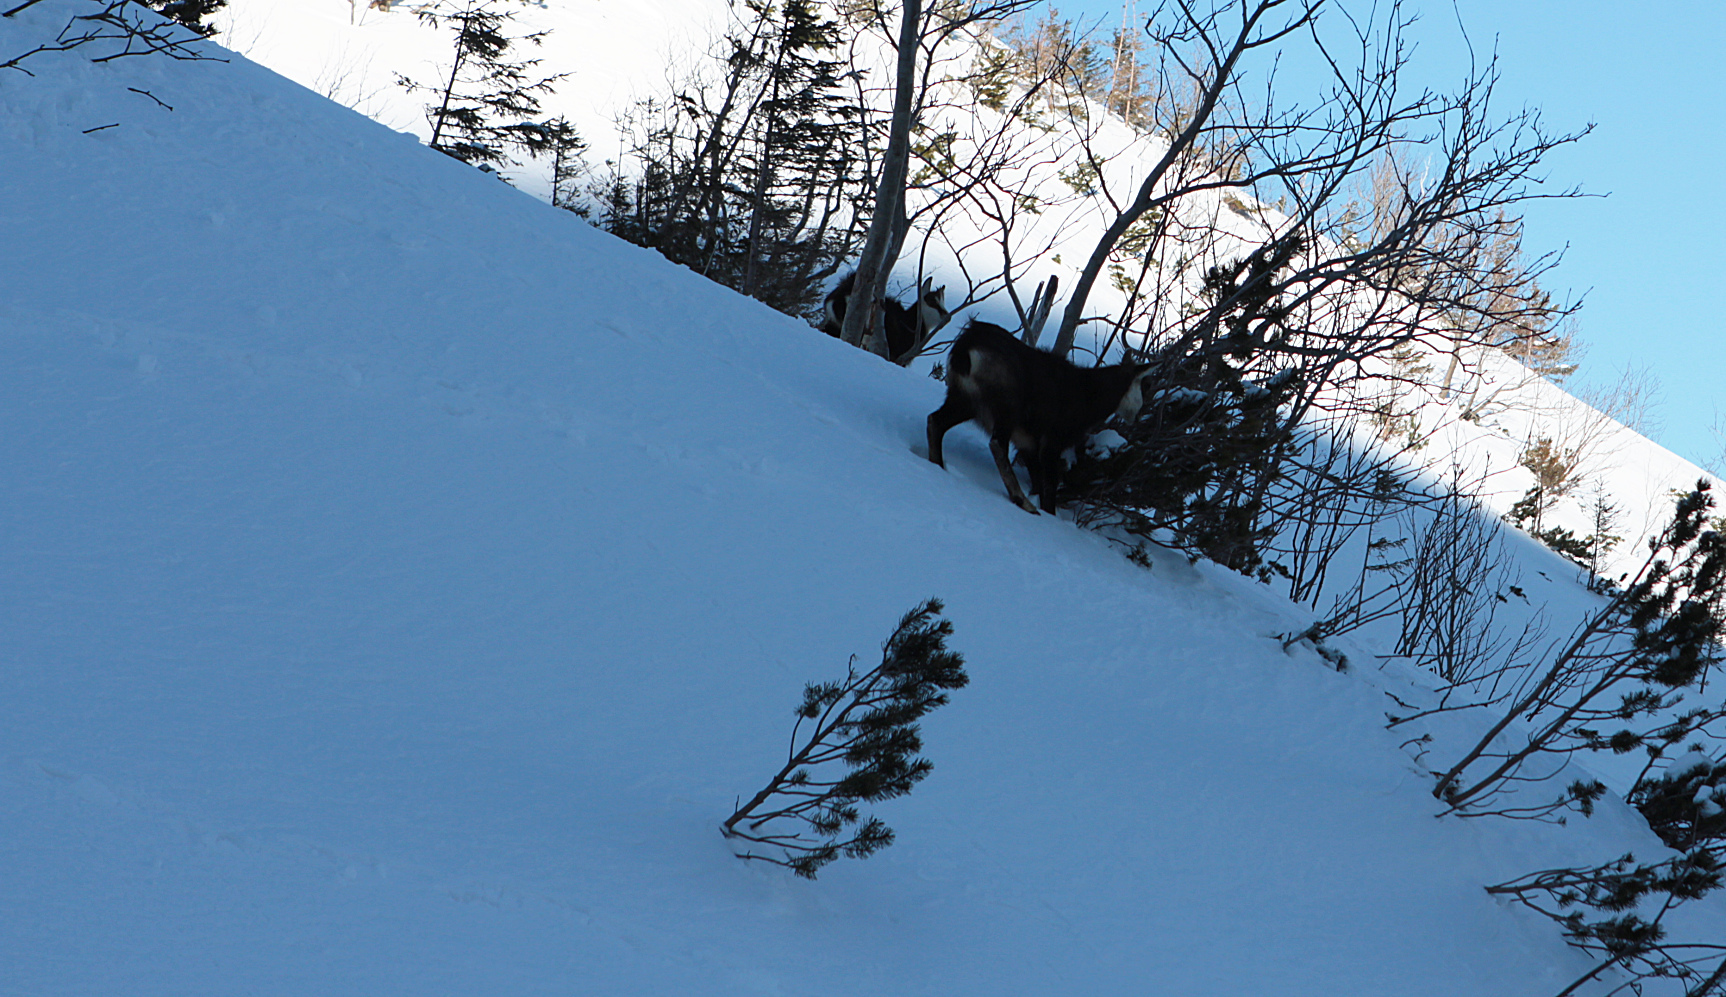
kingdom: Animalia
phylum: Chordata
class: Mammalia
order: Artiodactyla
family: Bovidae
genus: Rupicapra
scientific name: Rupicapra rupicapra
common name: Chamois
